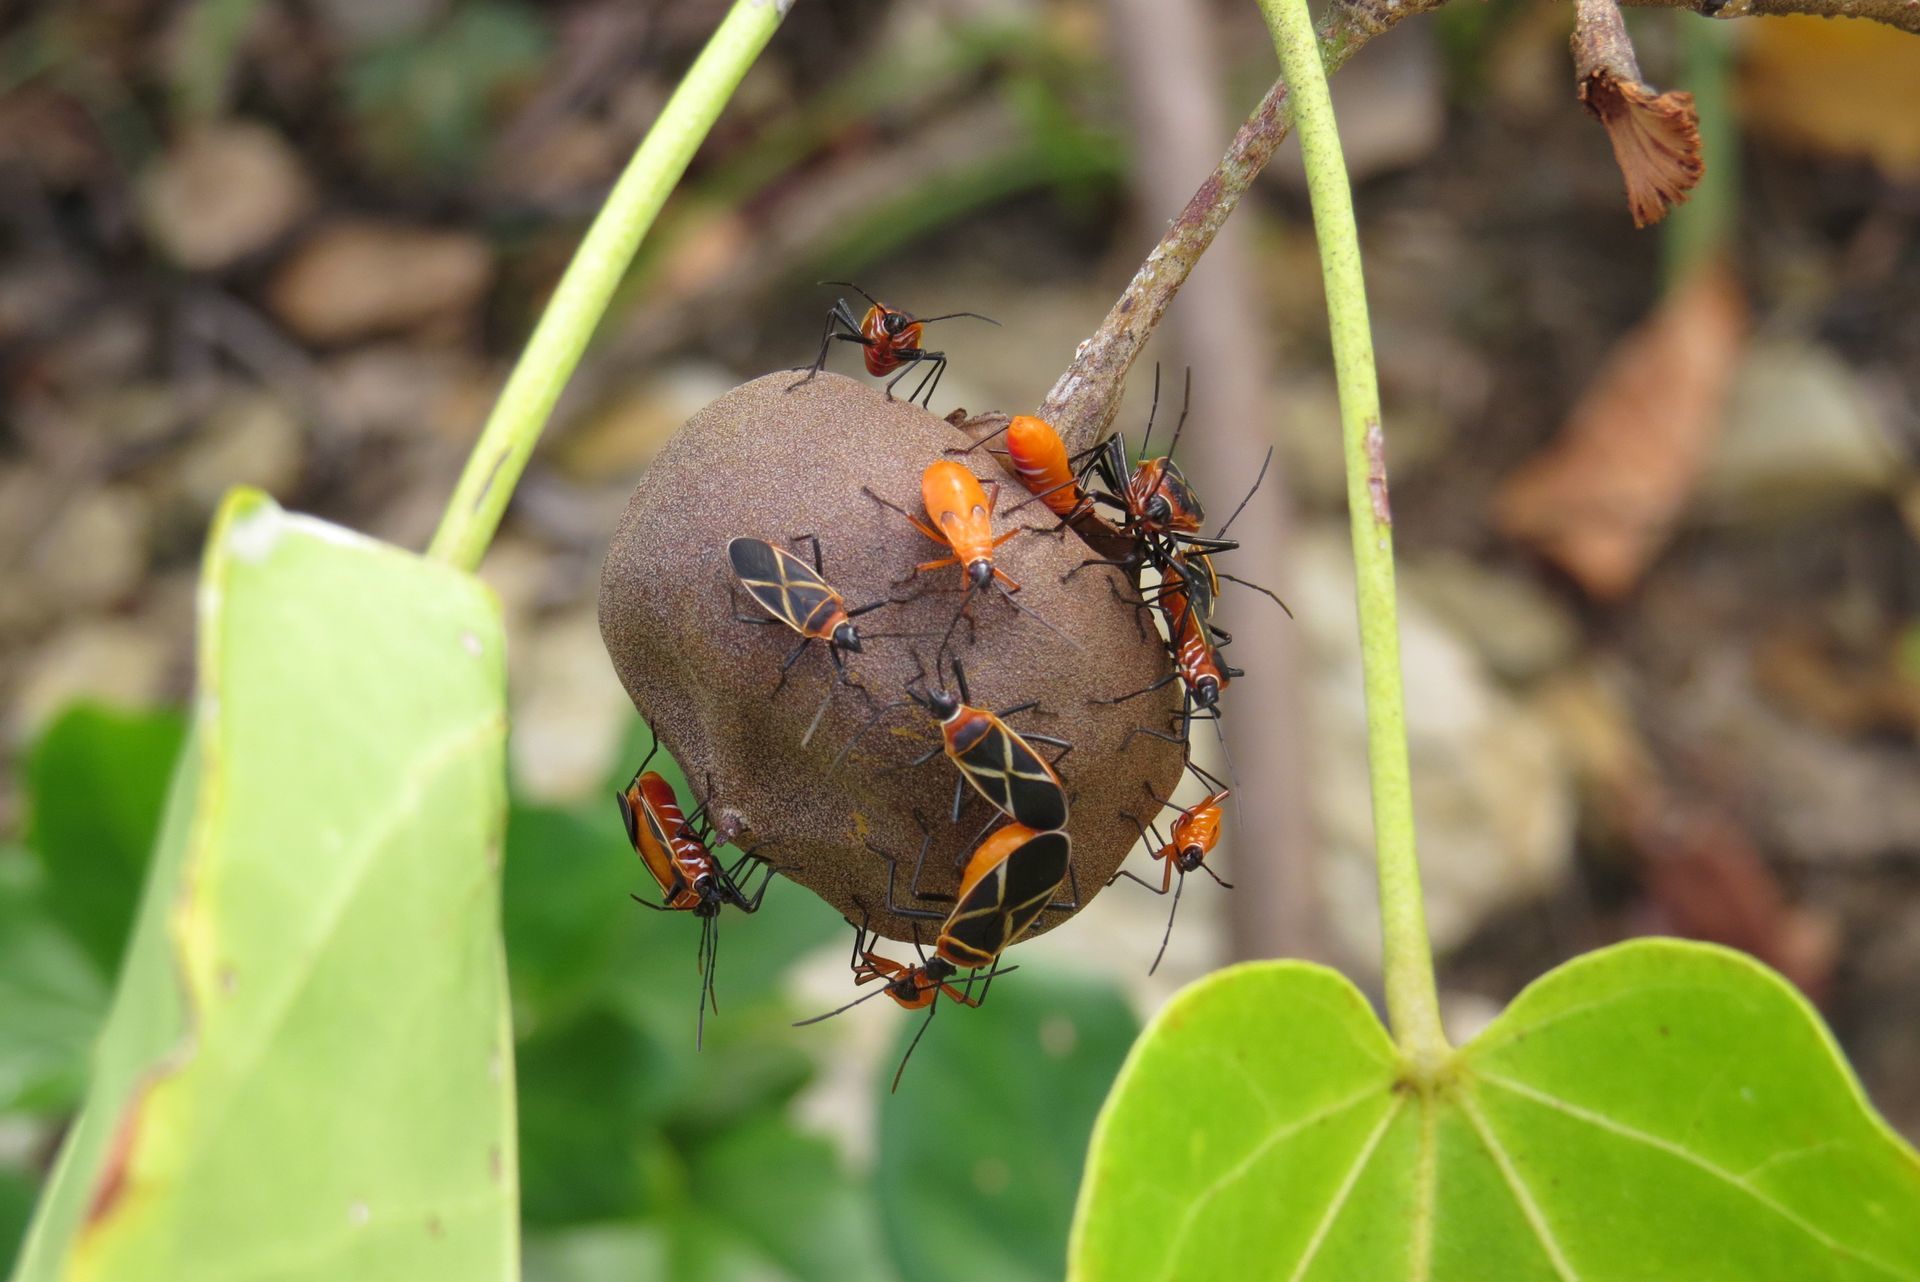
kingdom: Animalia
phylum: Arthropoda
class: Insecta
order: Hemiptera
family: Pyrrhocoridae
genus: Dysdercus
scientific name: Dysdercus decussatus
